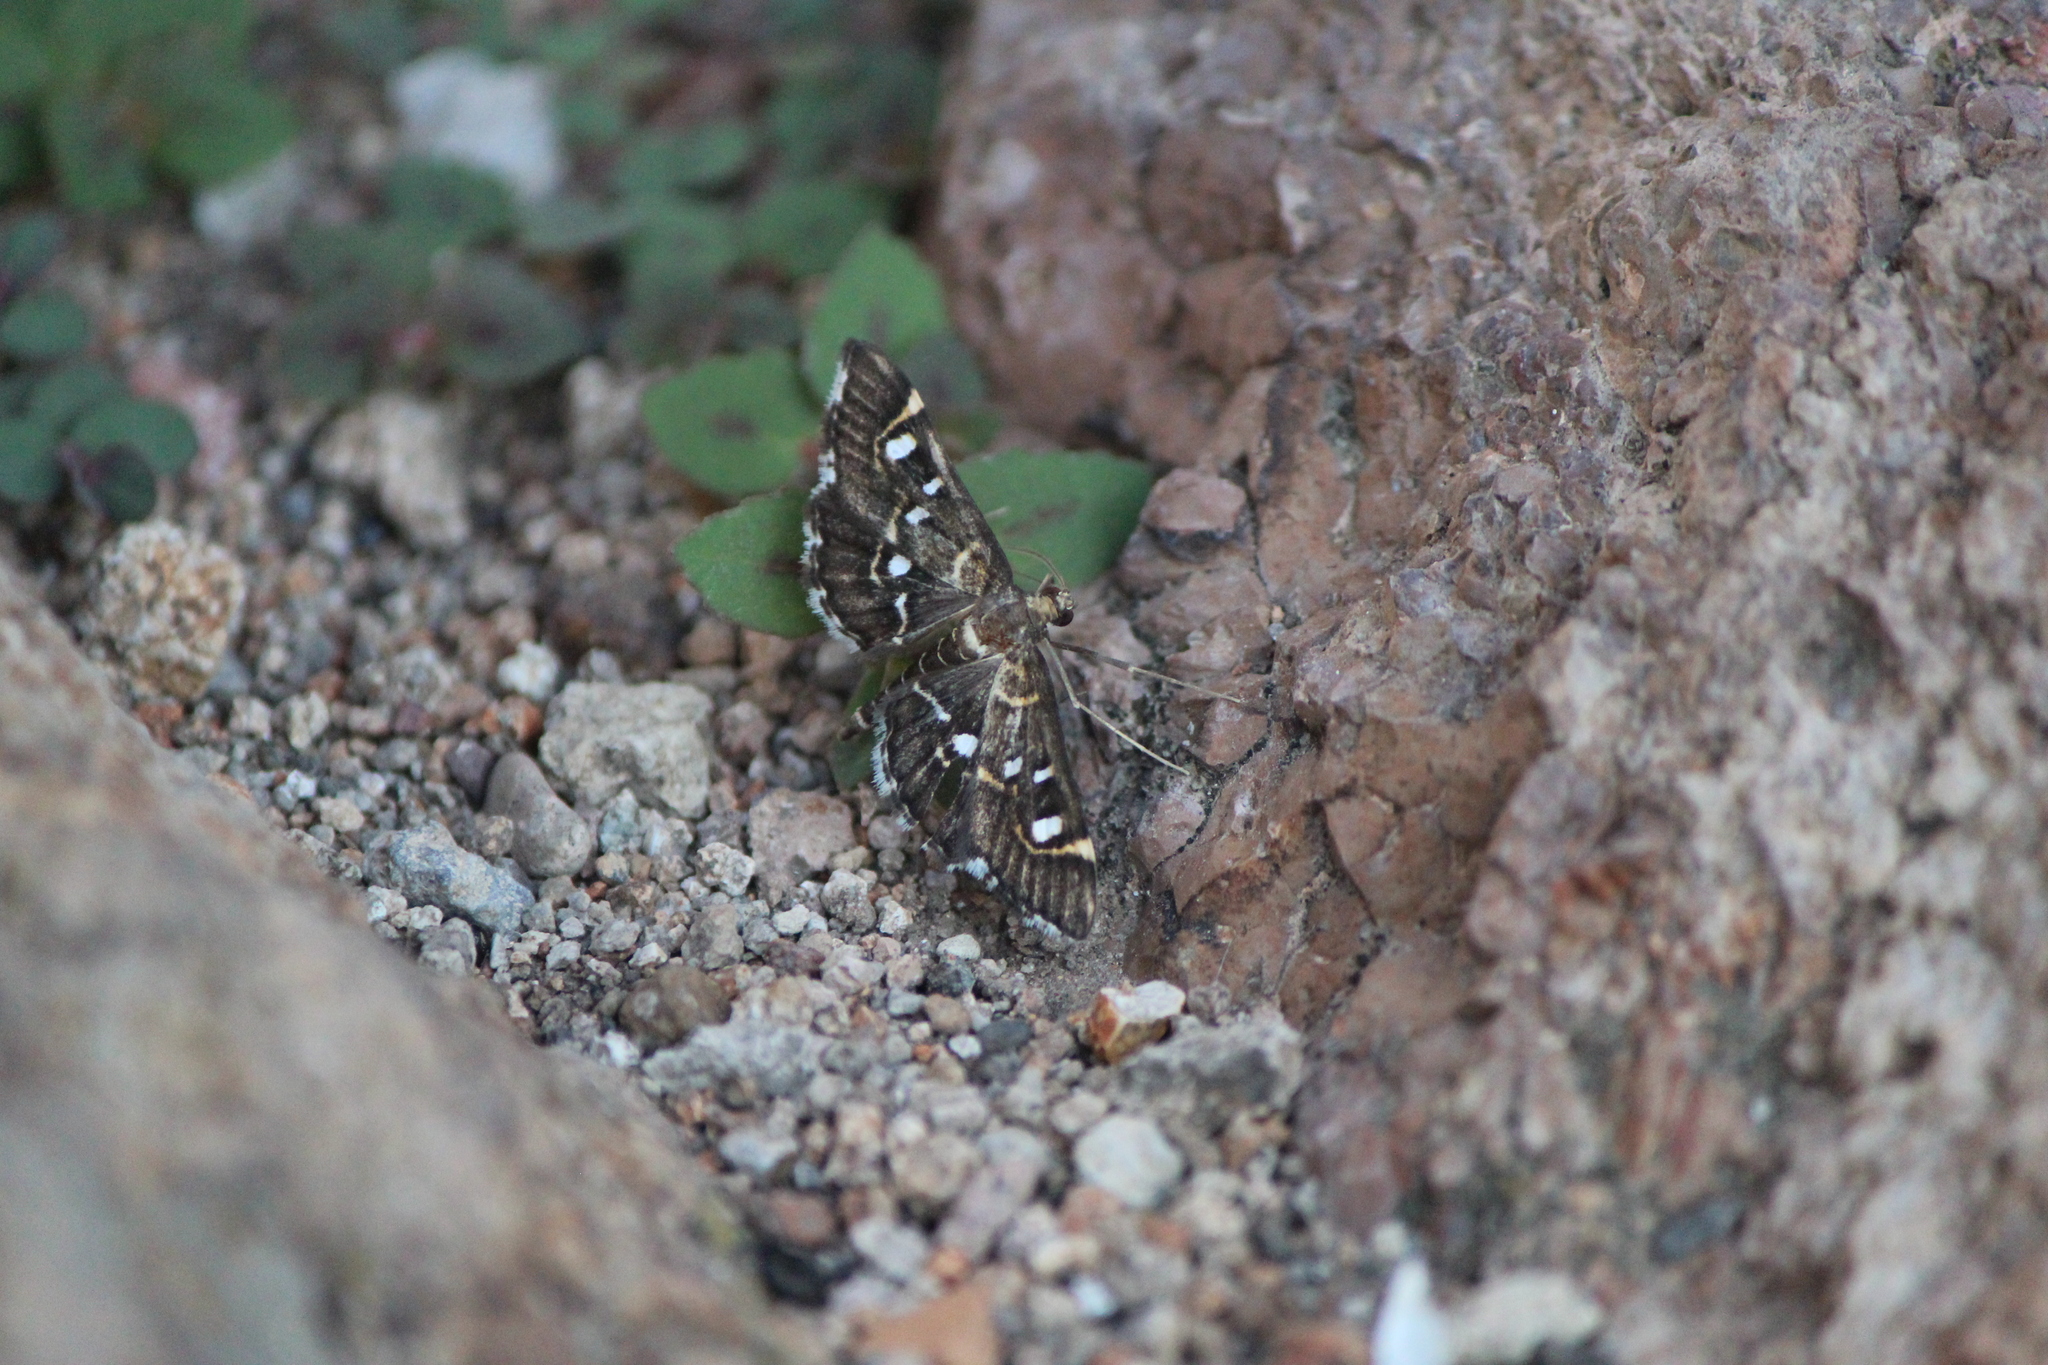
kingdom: Animalia
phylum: Arthropoda
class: Insecta
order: Lepidoptera
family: Crambidae
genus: Diathrausta
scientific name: Diathrausta harlequinalis
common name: Harlequin webworm moth
